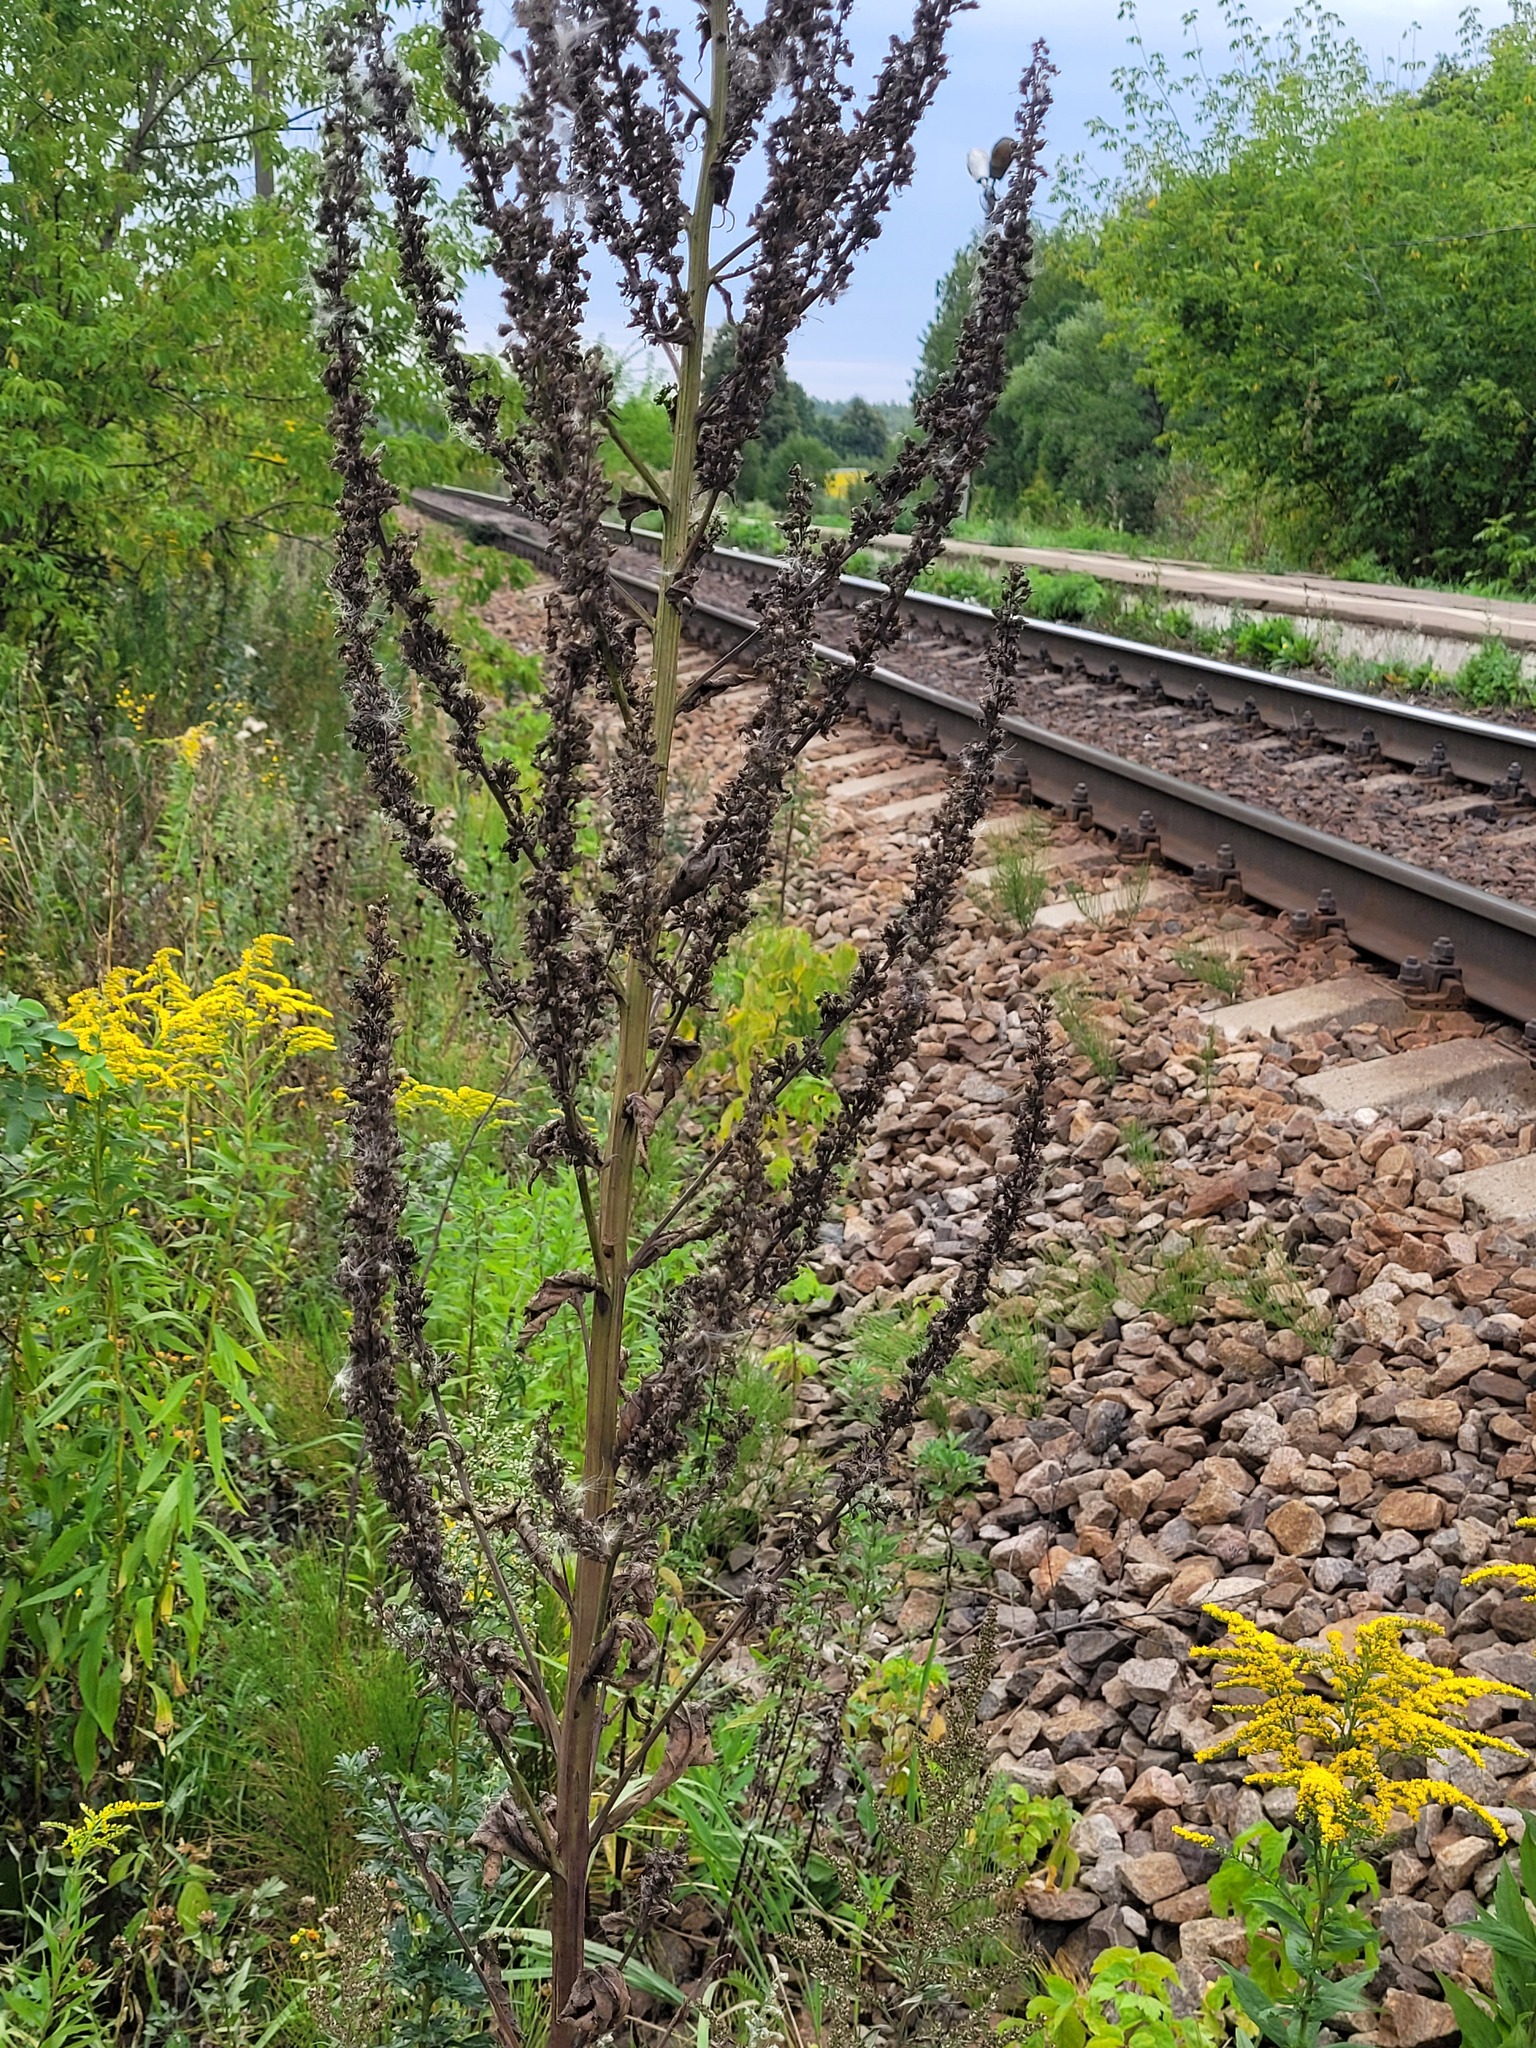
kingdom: Plantae
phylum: Tracheophyta
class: Magnoliopsida
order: Lamiales
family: Scrophulariaceae
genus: Verbascum
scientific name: Verbascum lychnitis
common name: White mullein
